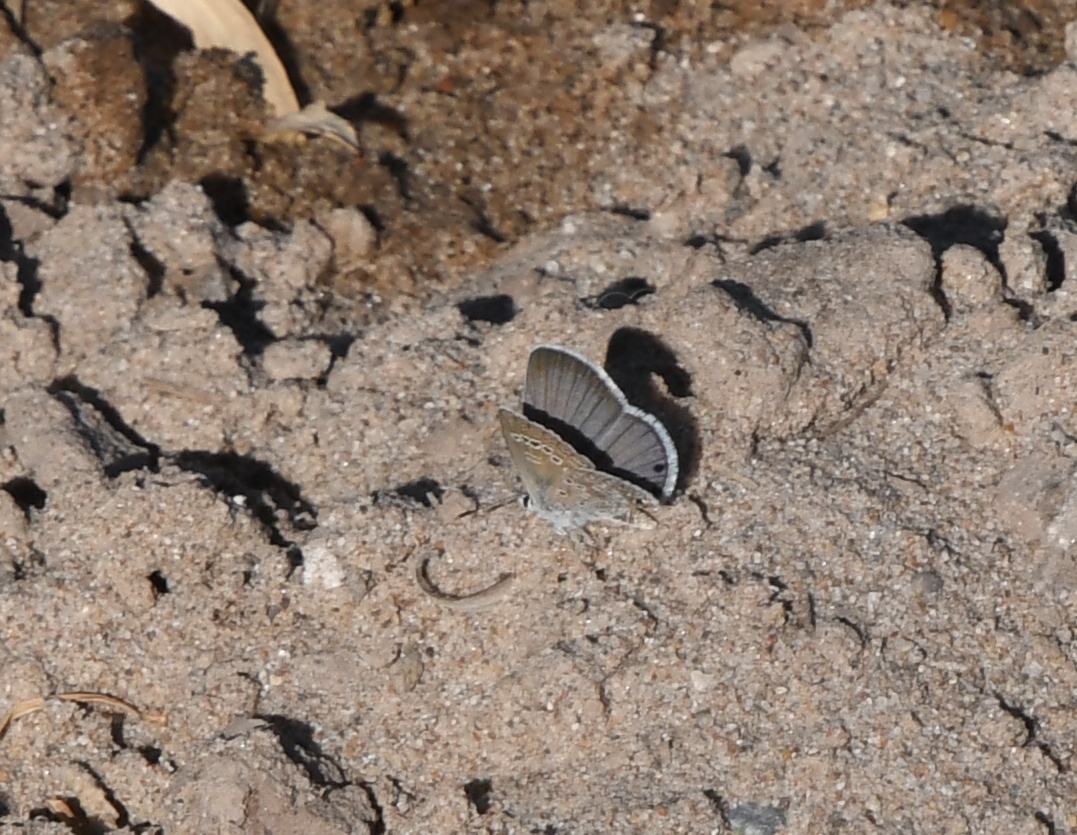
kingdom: Animalia
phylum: Arthropoda
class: Insecta
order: Lepidoptera
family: Lycaenidae
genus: Echinargus
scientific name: Echinargus isola
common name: Reakirt's blue
